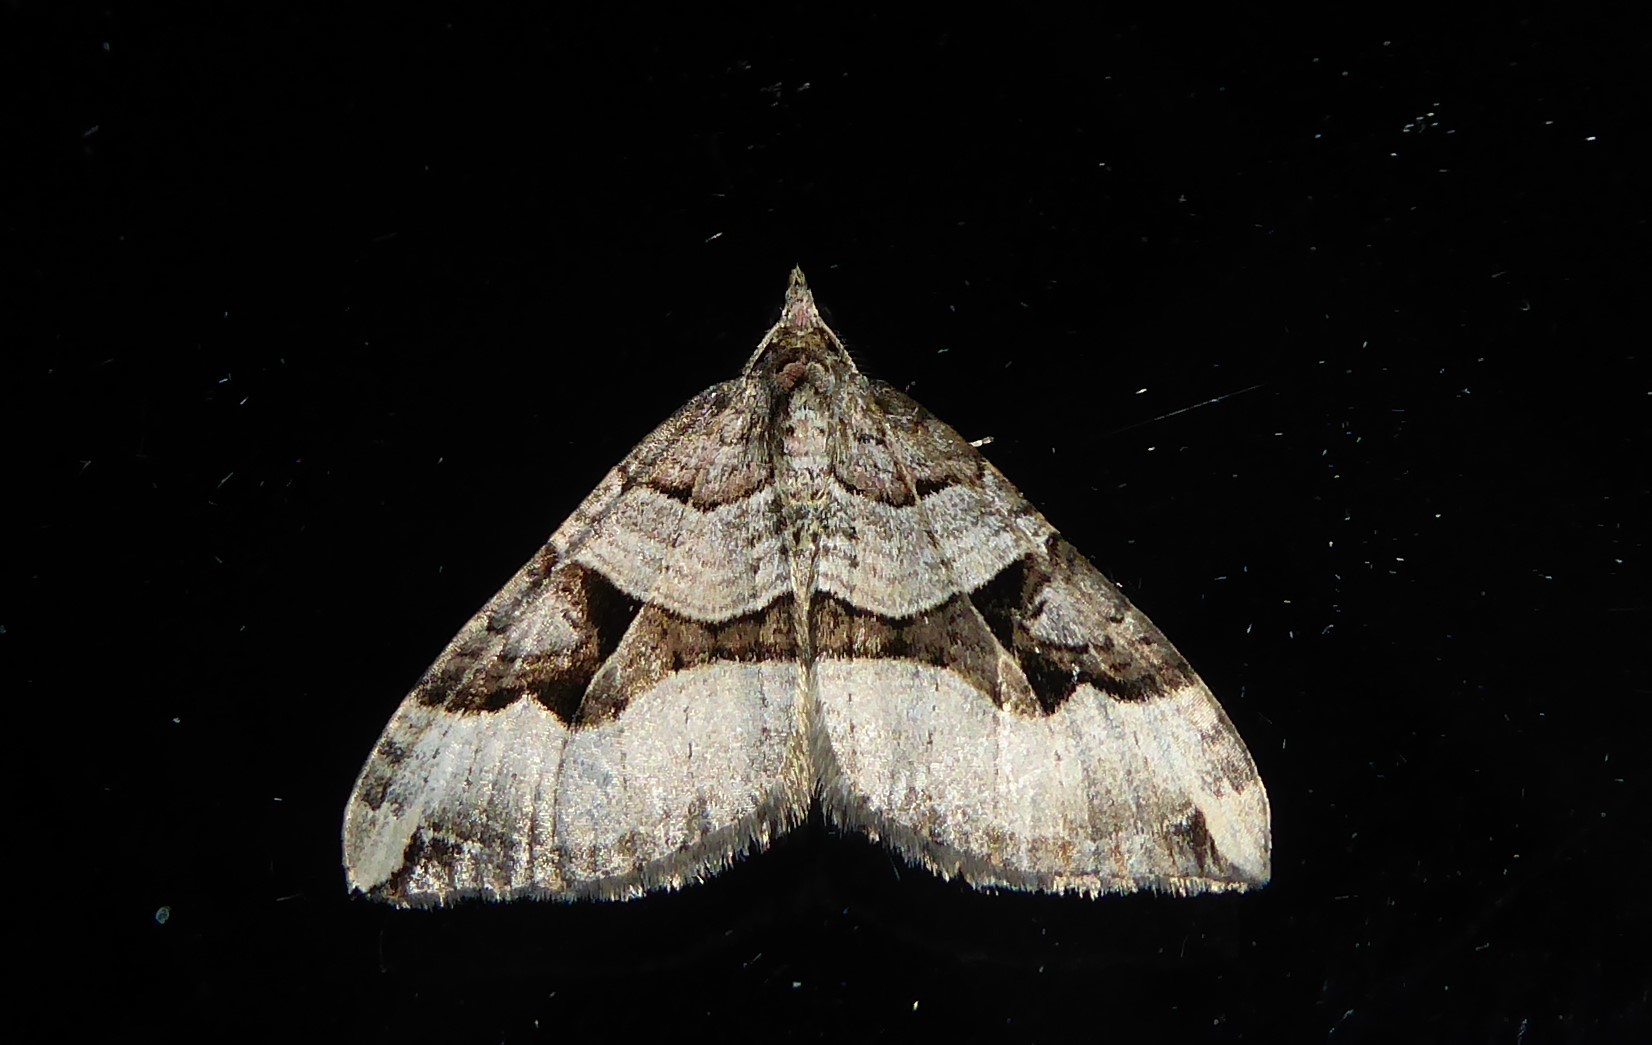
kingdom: Animalia
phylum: Arthropoda
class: Insecta
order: Lepidoptera
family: Geometridae
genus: Xanthorhoe
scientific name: Xanthorhoe semifissata
